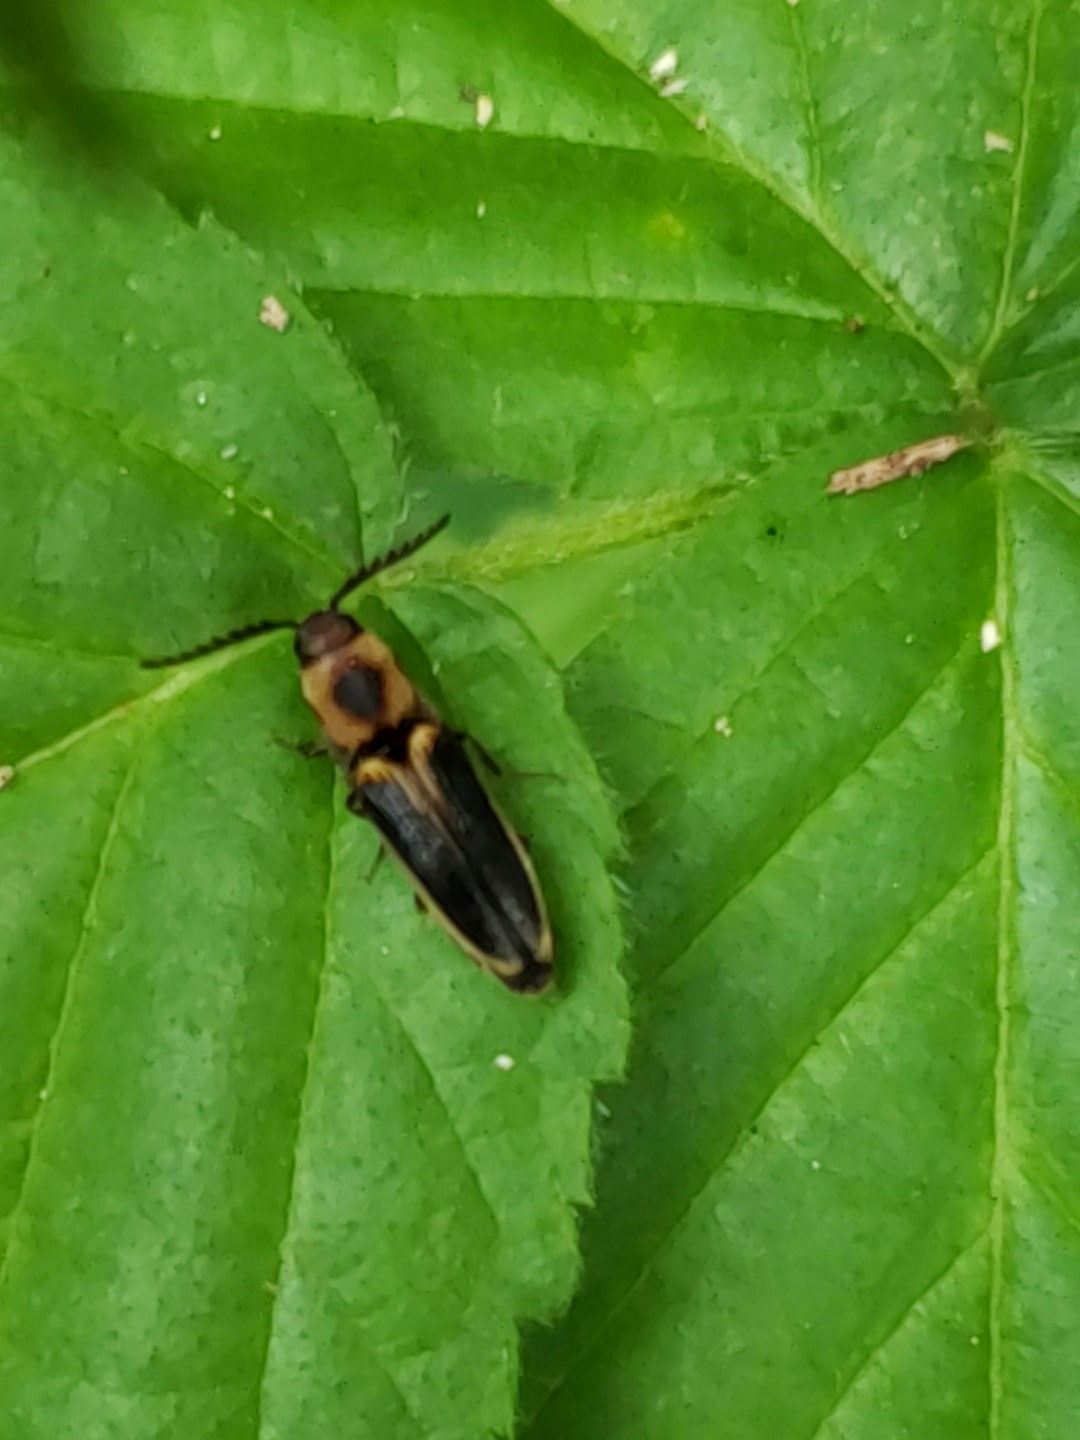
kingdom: Animalia
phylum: Arthropoda
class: Insecta
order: Coleoptera
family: Elateridae
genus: Megapenthes
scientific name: Megapenthes
